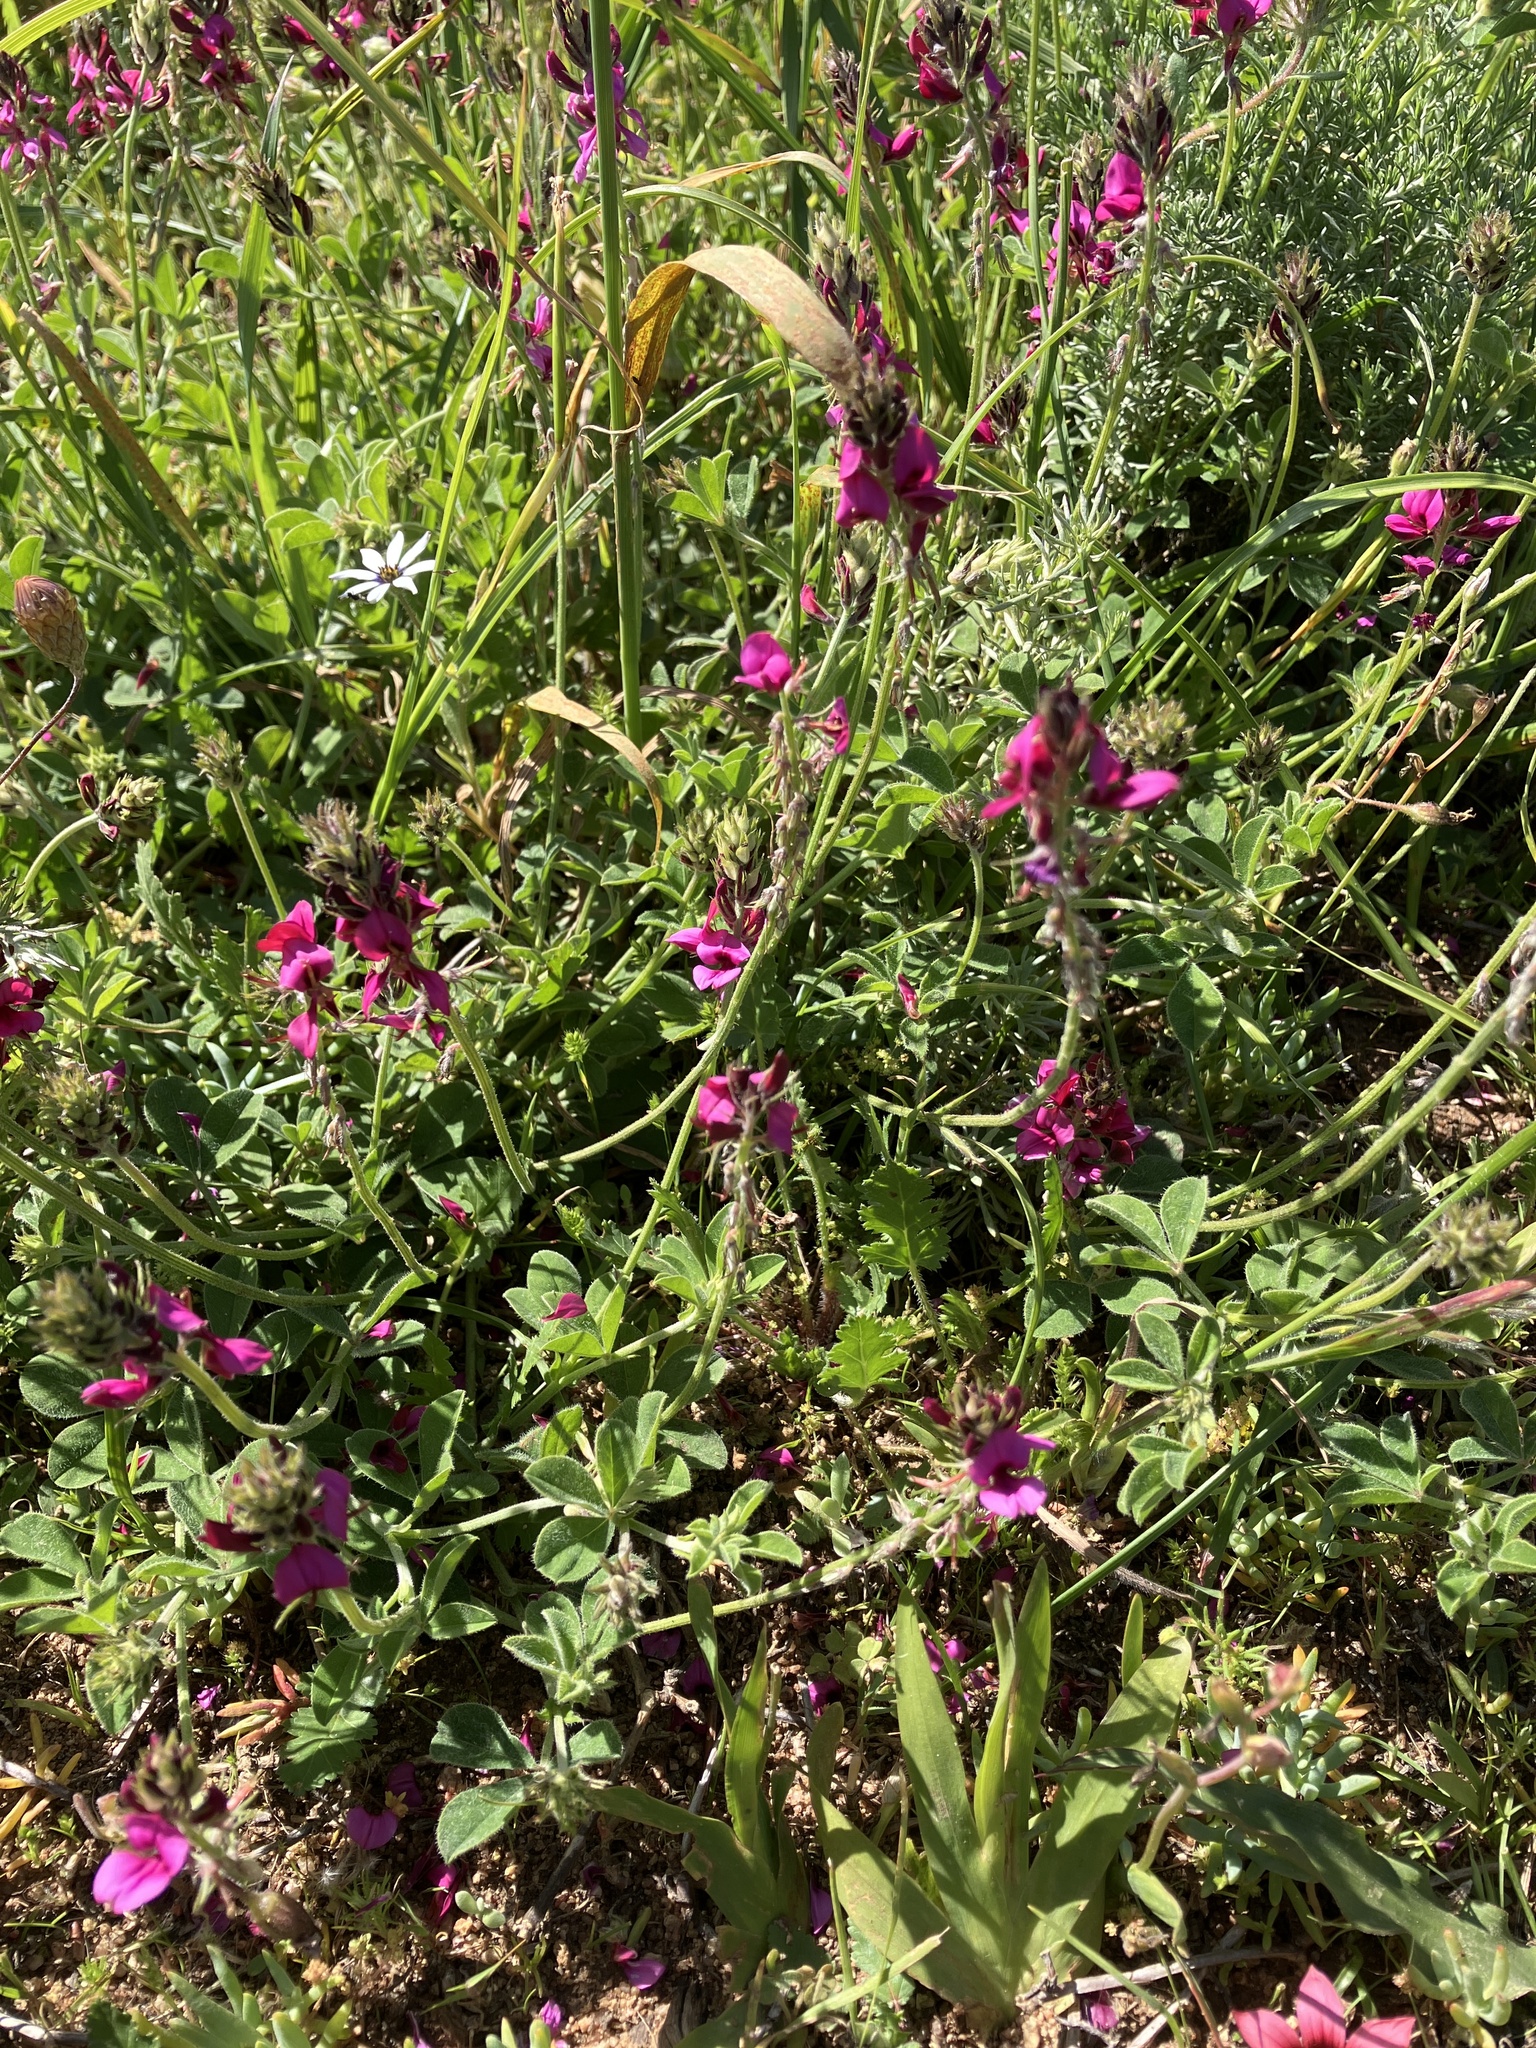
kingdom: Plantae
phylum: Tracheophyta
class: Magnoliopsida
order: Fabales
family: Fabaceae
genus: Indigofera
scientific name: Indigofera incana
